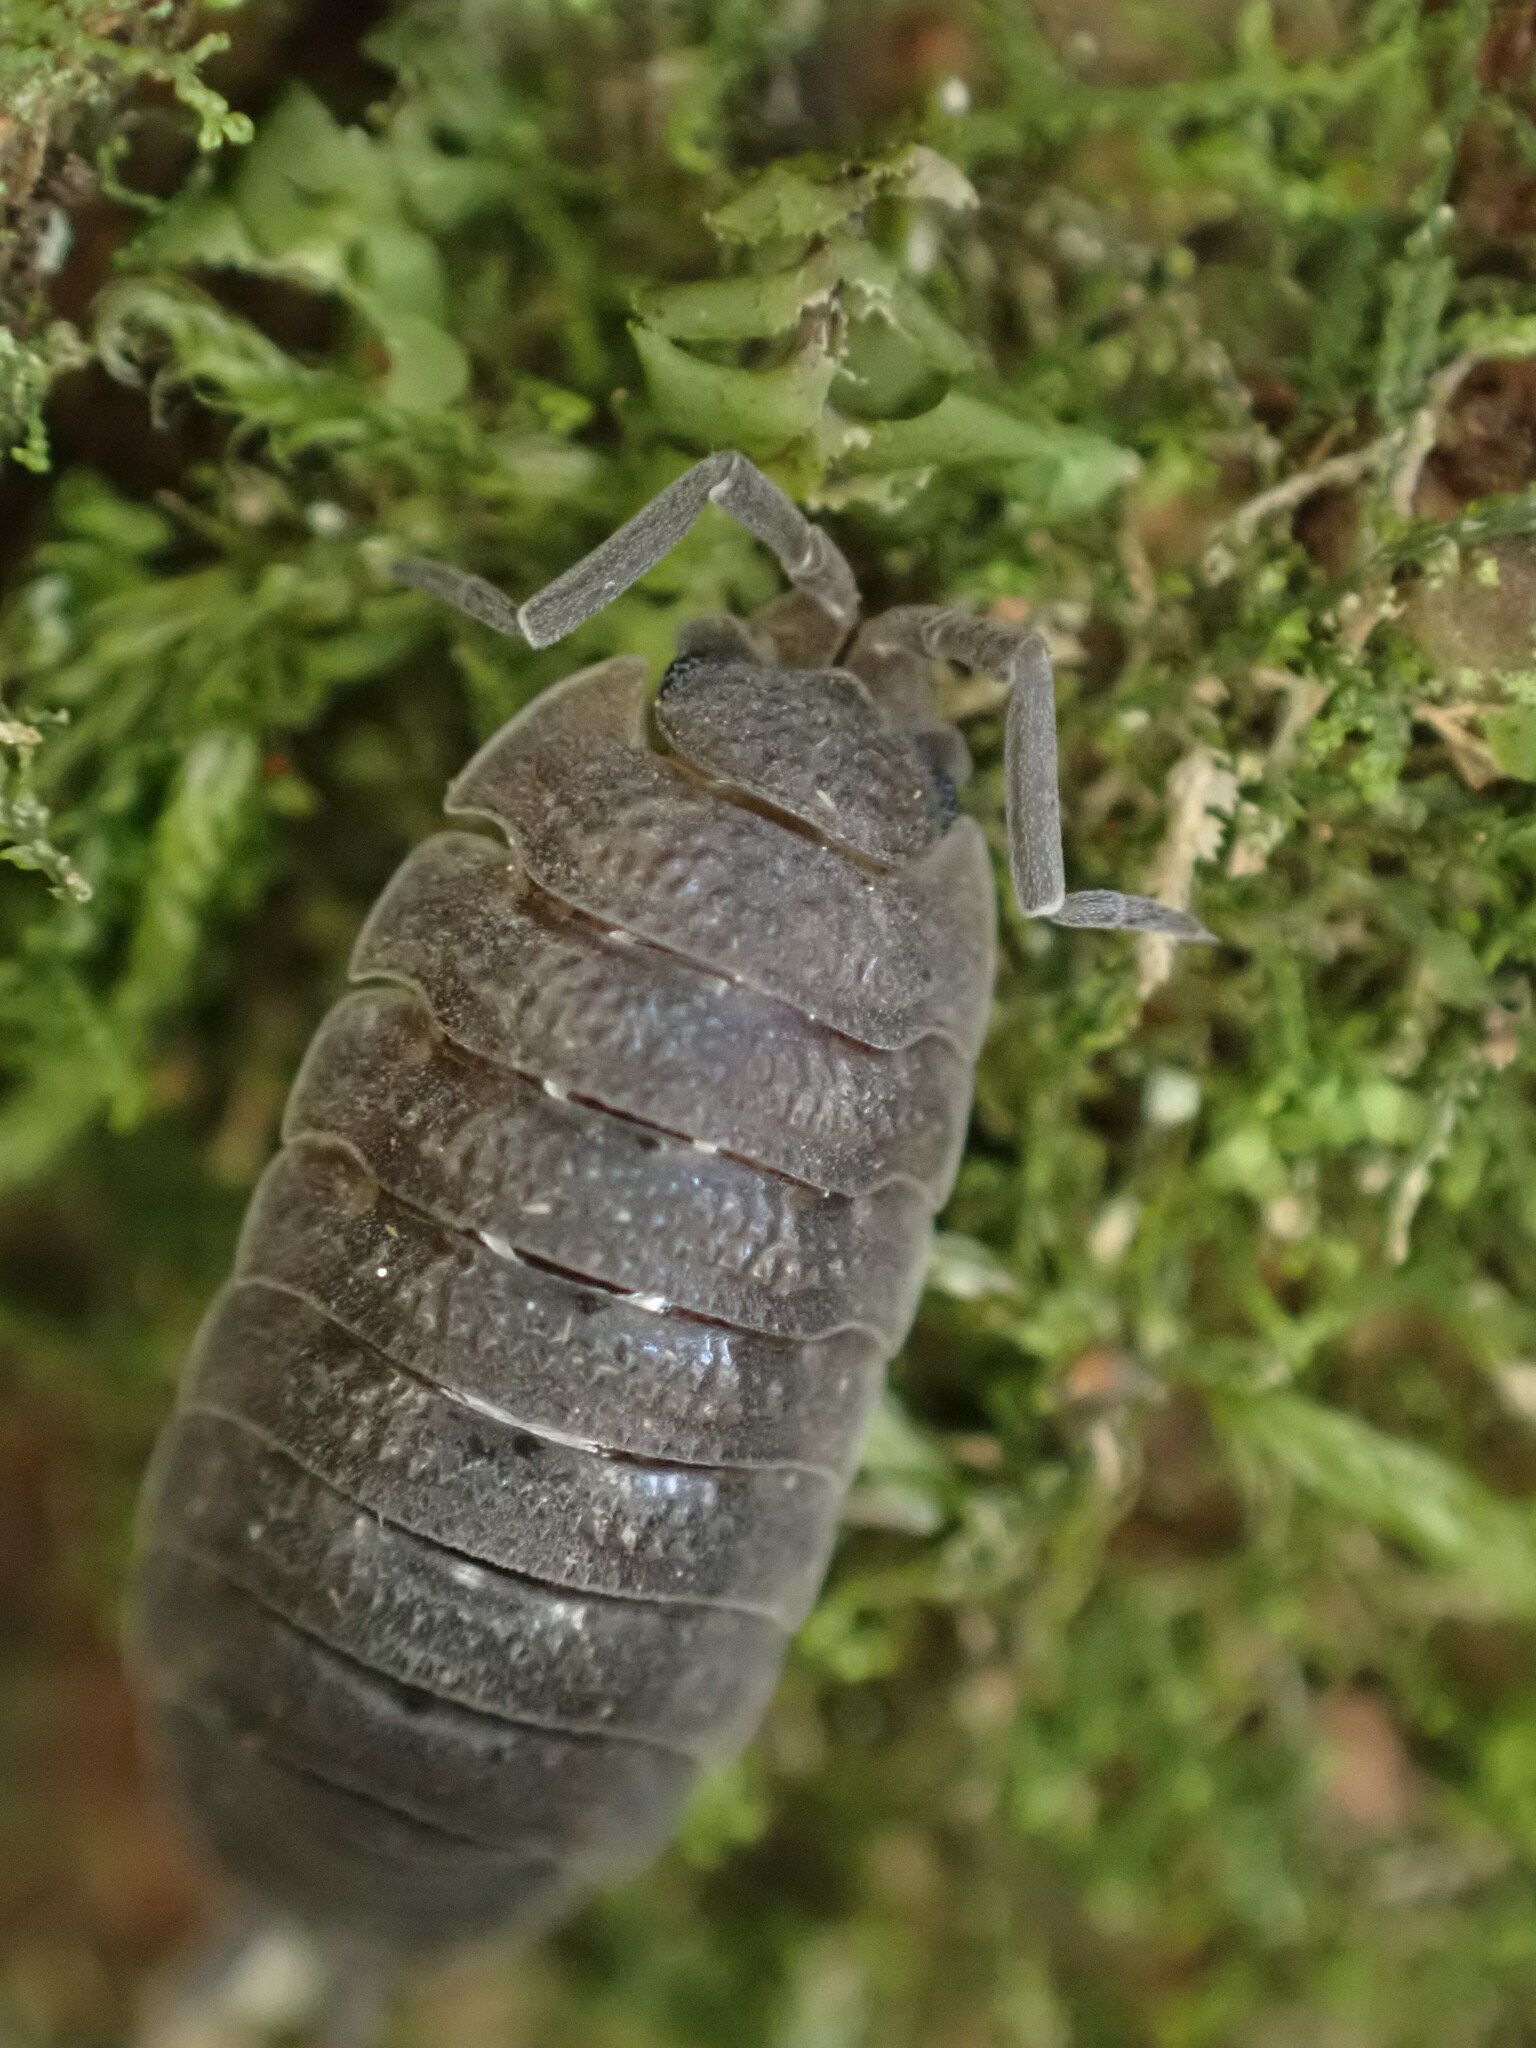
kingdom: Animalia
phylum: Arthropoda
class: Malacostraca
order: Isopoda
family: Porcellionidae
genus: Porcellio
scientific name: Porcellio scaber
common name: Common rough woodlouse
